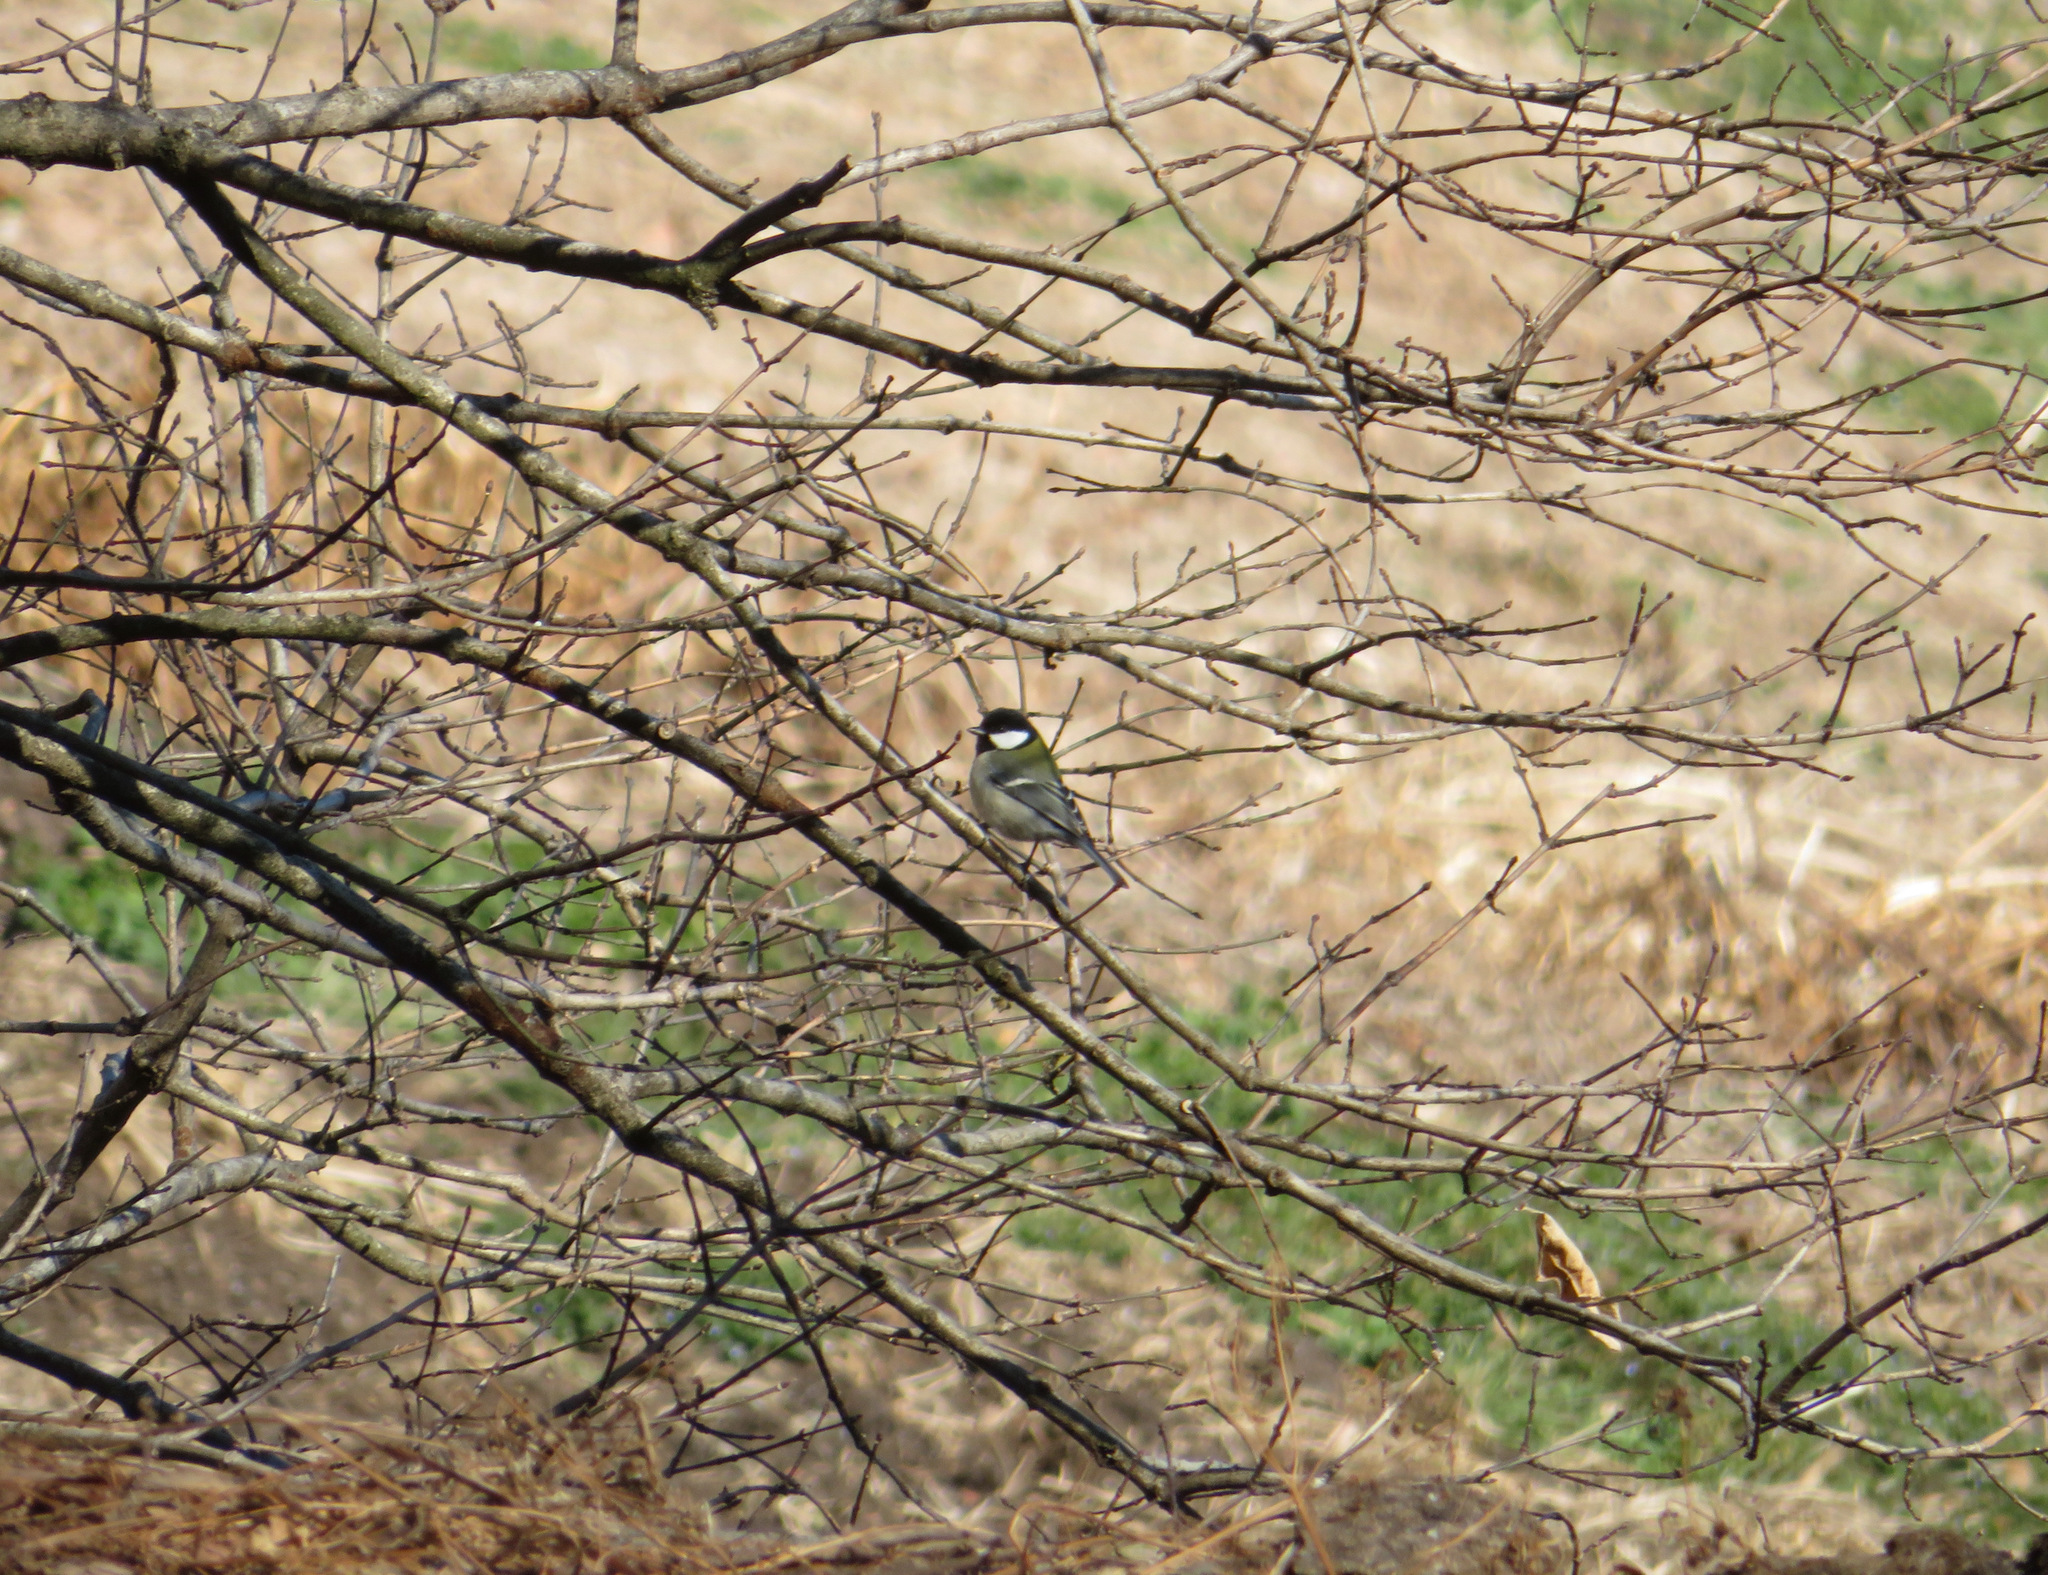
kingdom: Animalia
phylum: Chordata
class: Aves
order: Passeriformes
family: Paridae
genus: Parus
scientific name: Parus minor
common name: Japanese tit
